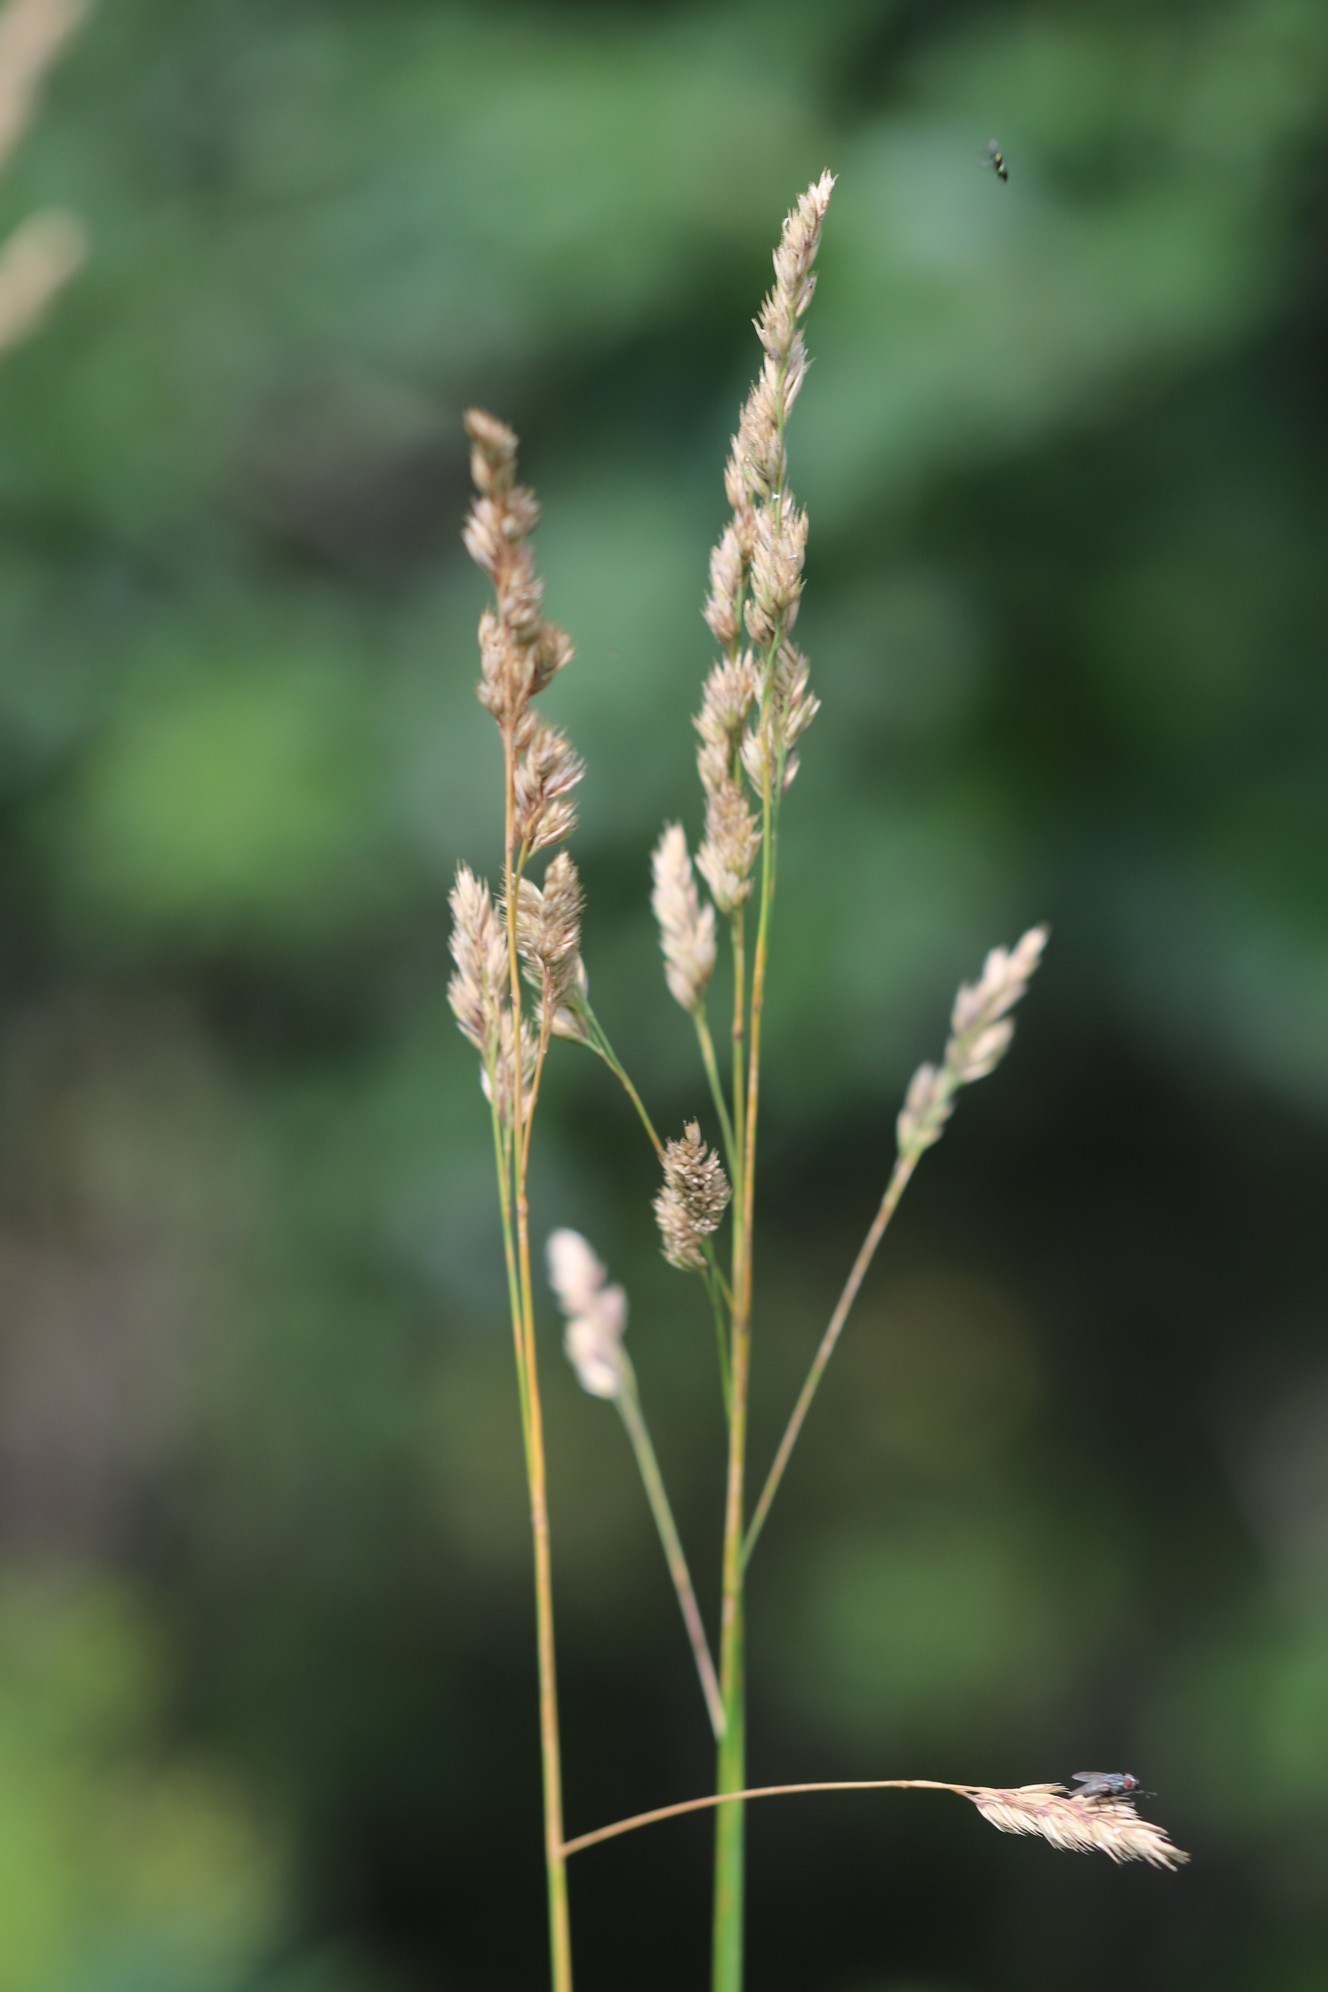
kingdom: Plantae
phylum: Tracheophyta
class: Liliopsida
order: Poales
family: Poaceae
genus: Dactylis
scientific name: Dactylis glomerata
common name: Orchardgrass
